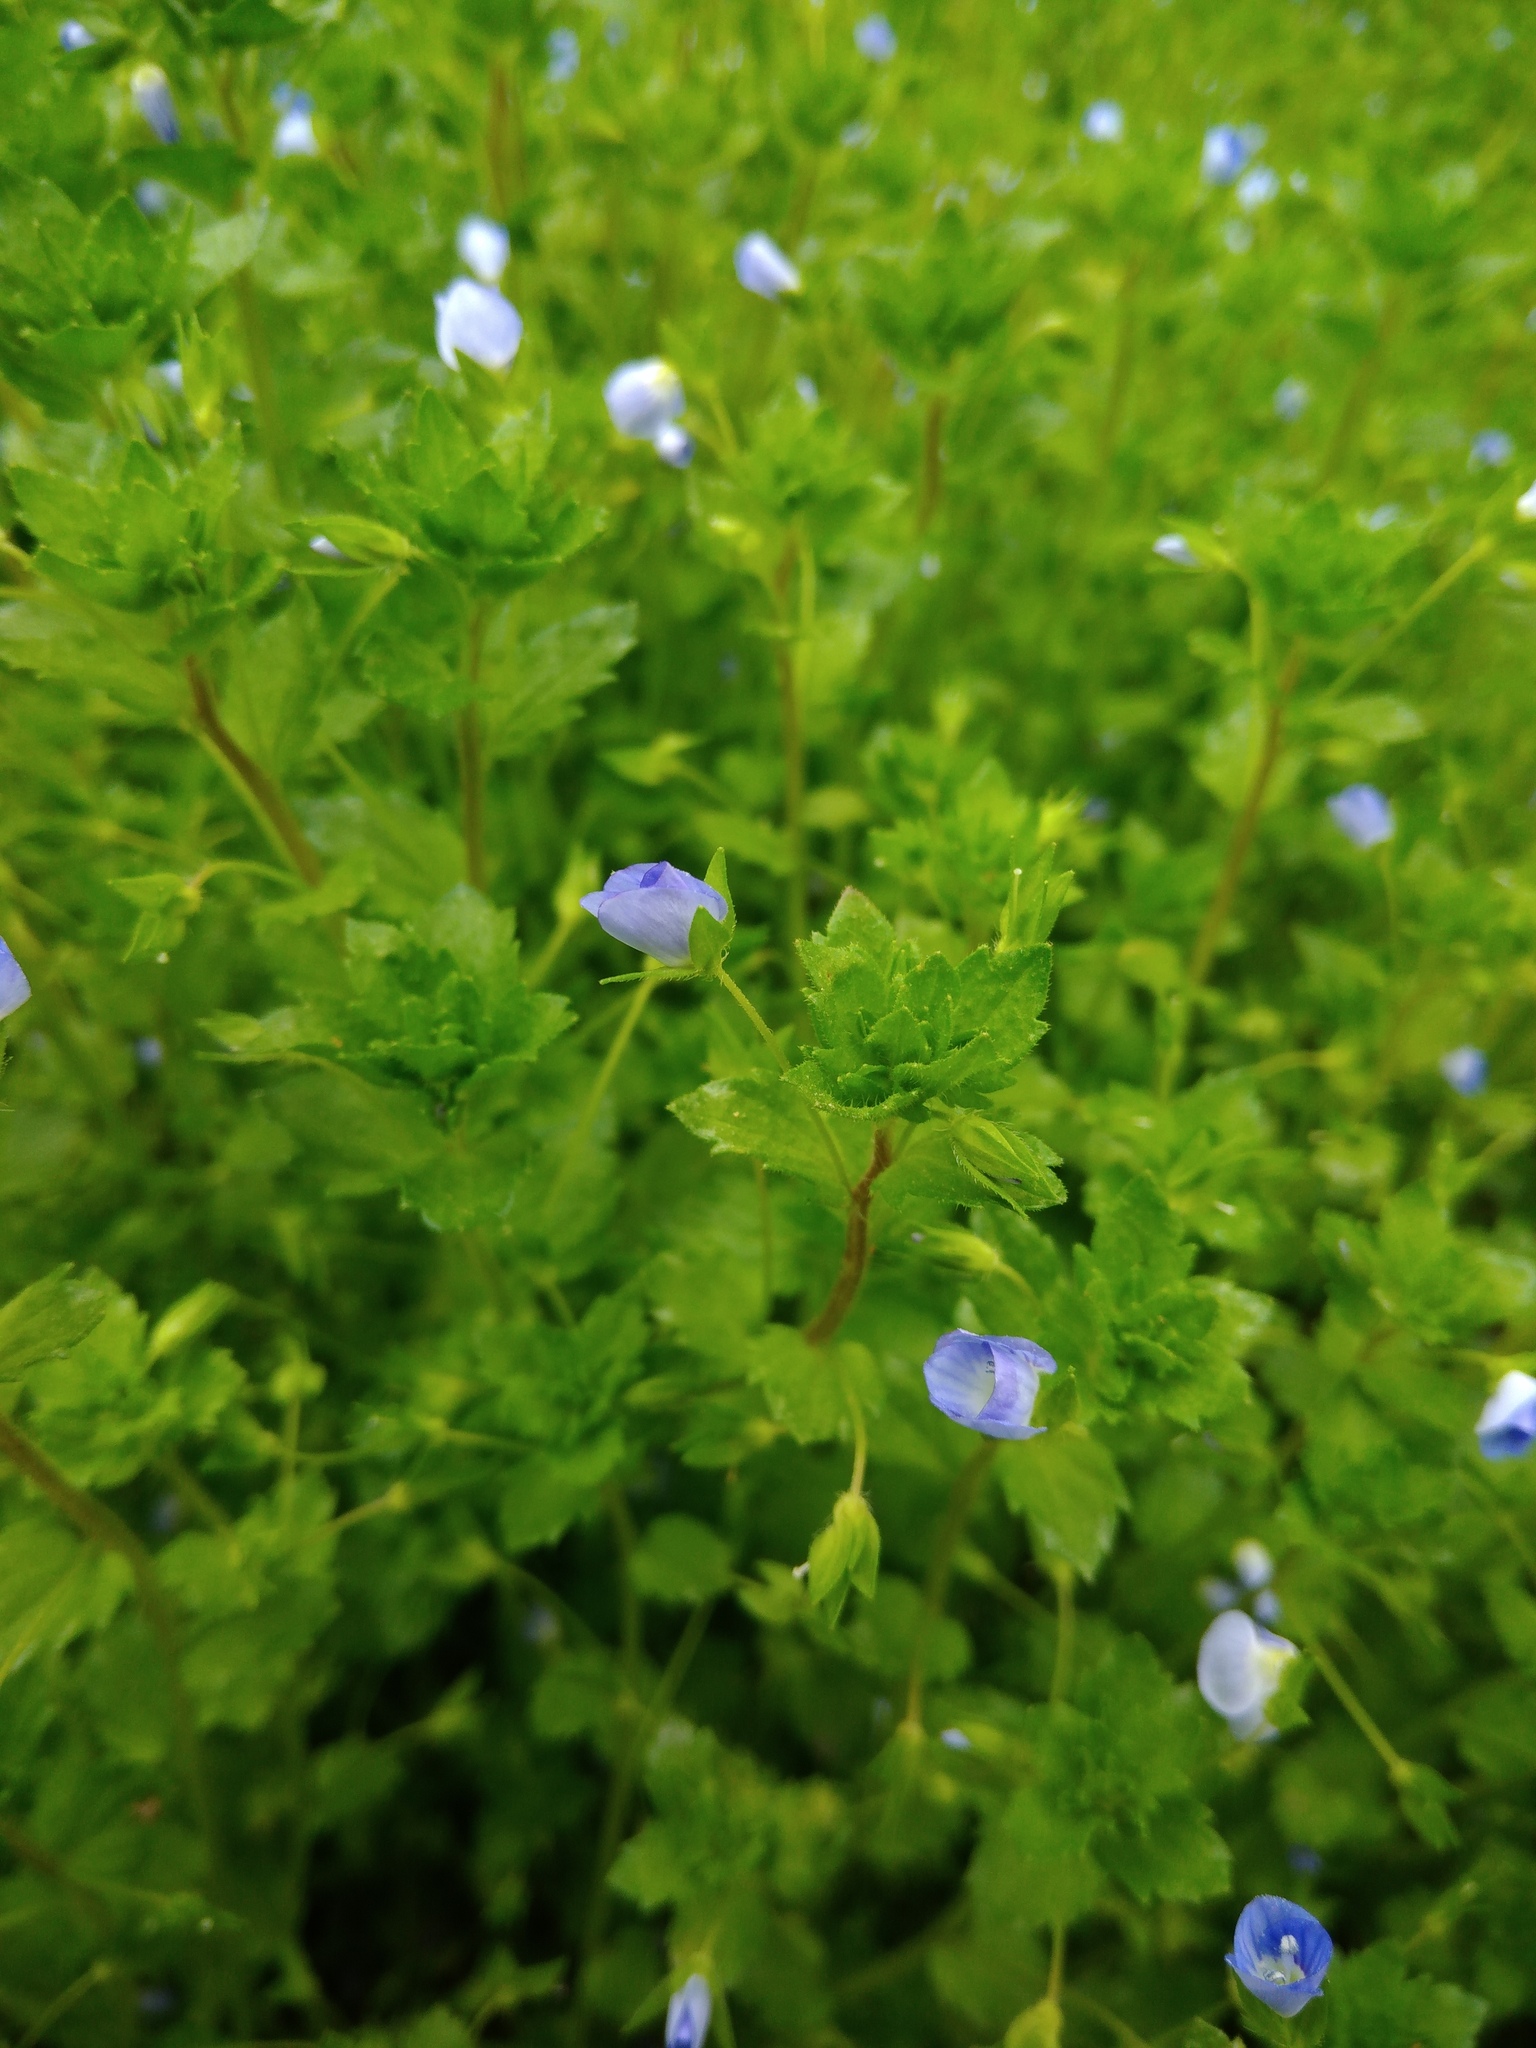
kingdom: Plantae
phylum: Tracheophyta
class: Magnoliopsida
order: Lamiales
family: Plantaginaceae
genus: Veronica
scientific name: Veronica persica
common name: Common field-speedwell
